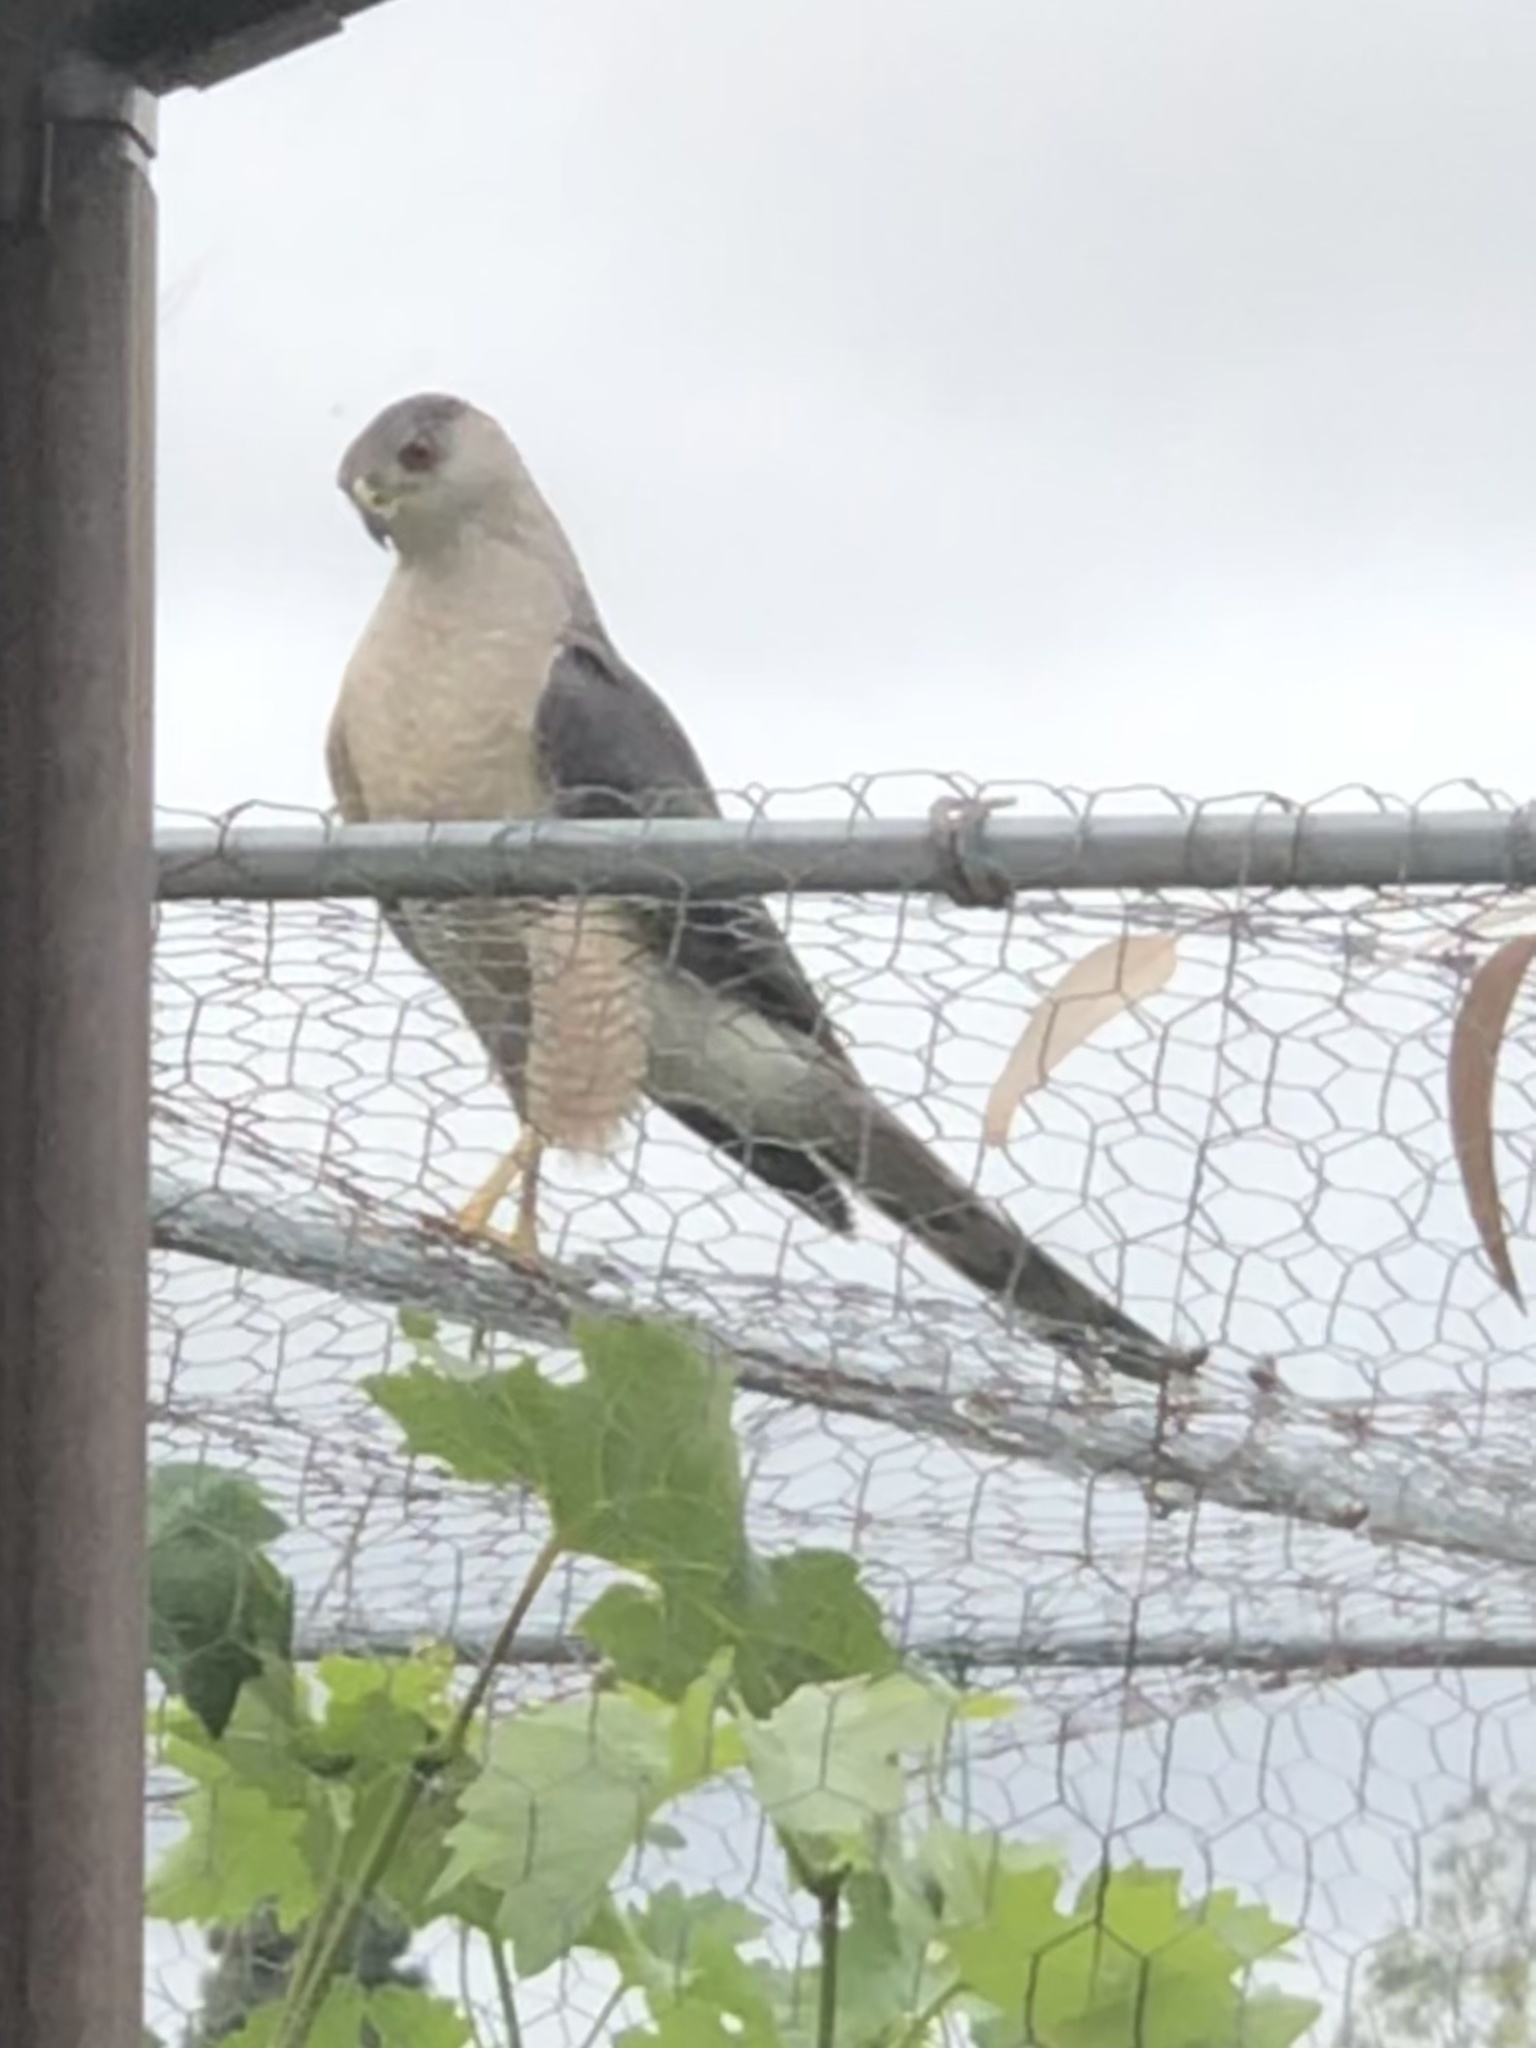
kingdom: Animalia
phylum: Chordata
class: Aves
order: Accipitriformes
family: Accipitridae
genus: Accipiter
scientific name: Accipiter cooperii
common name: Cooper's hawk
